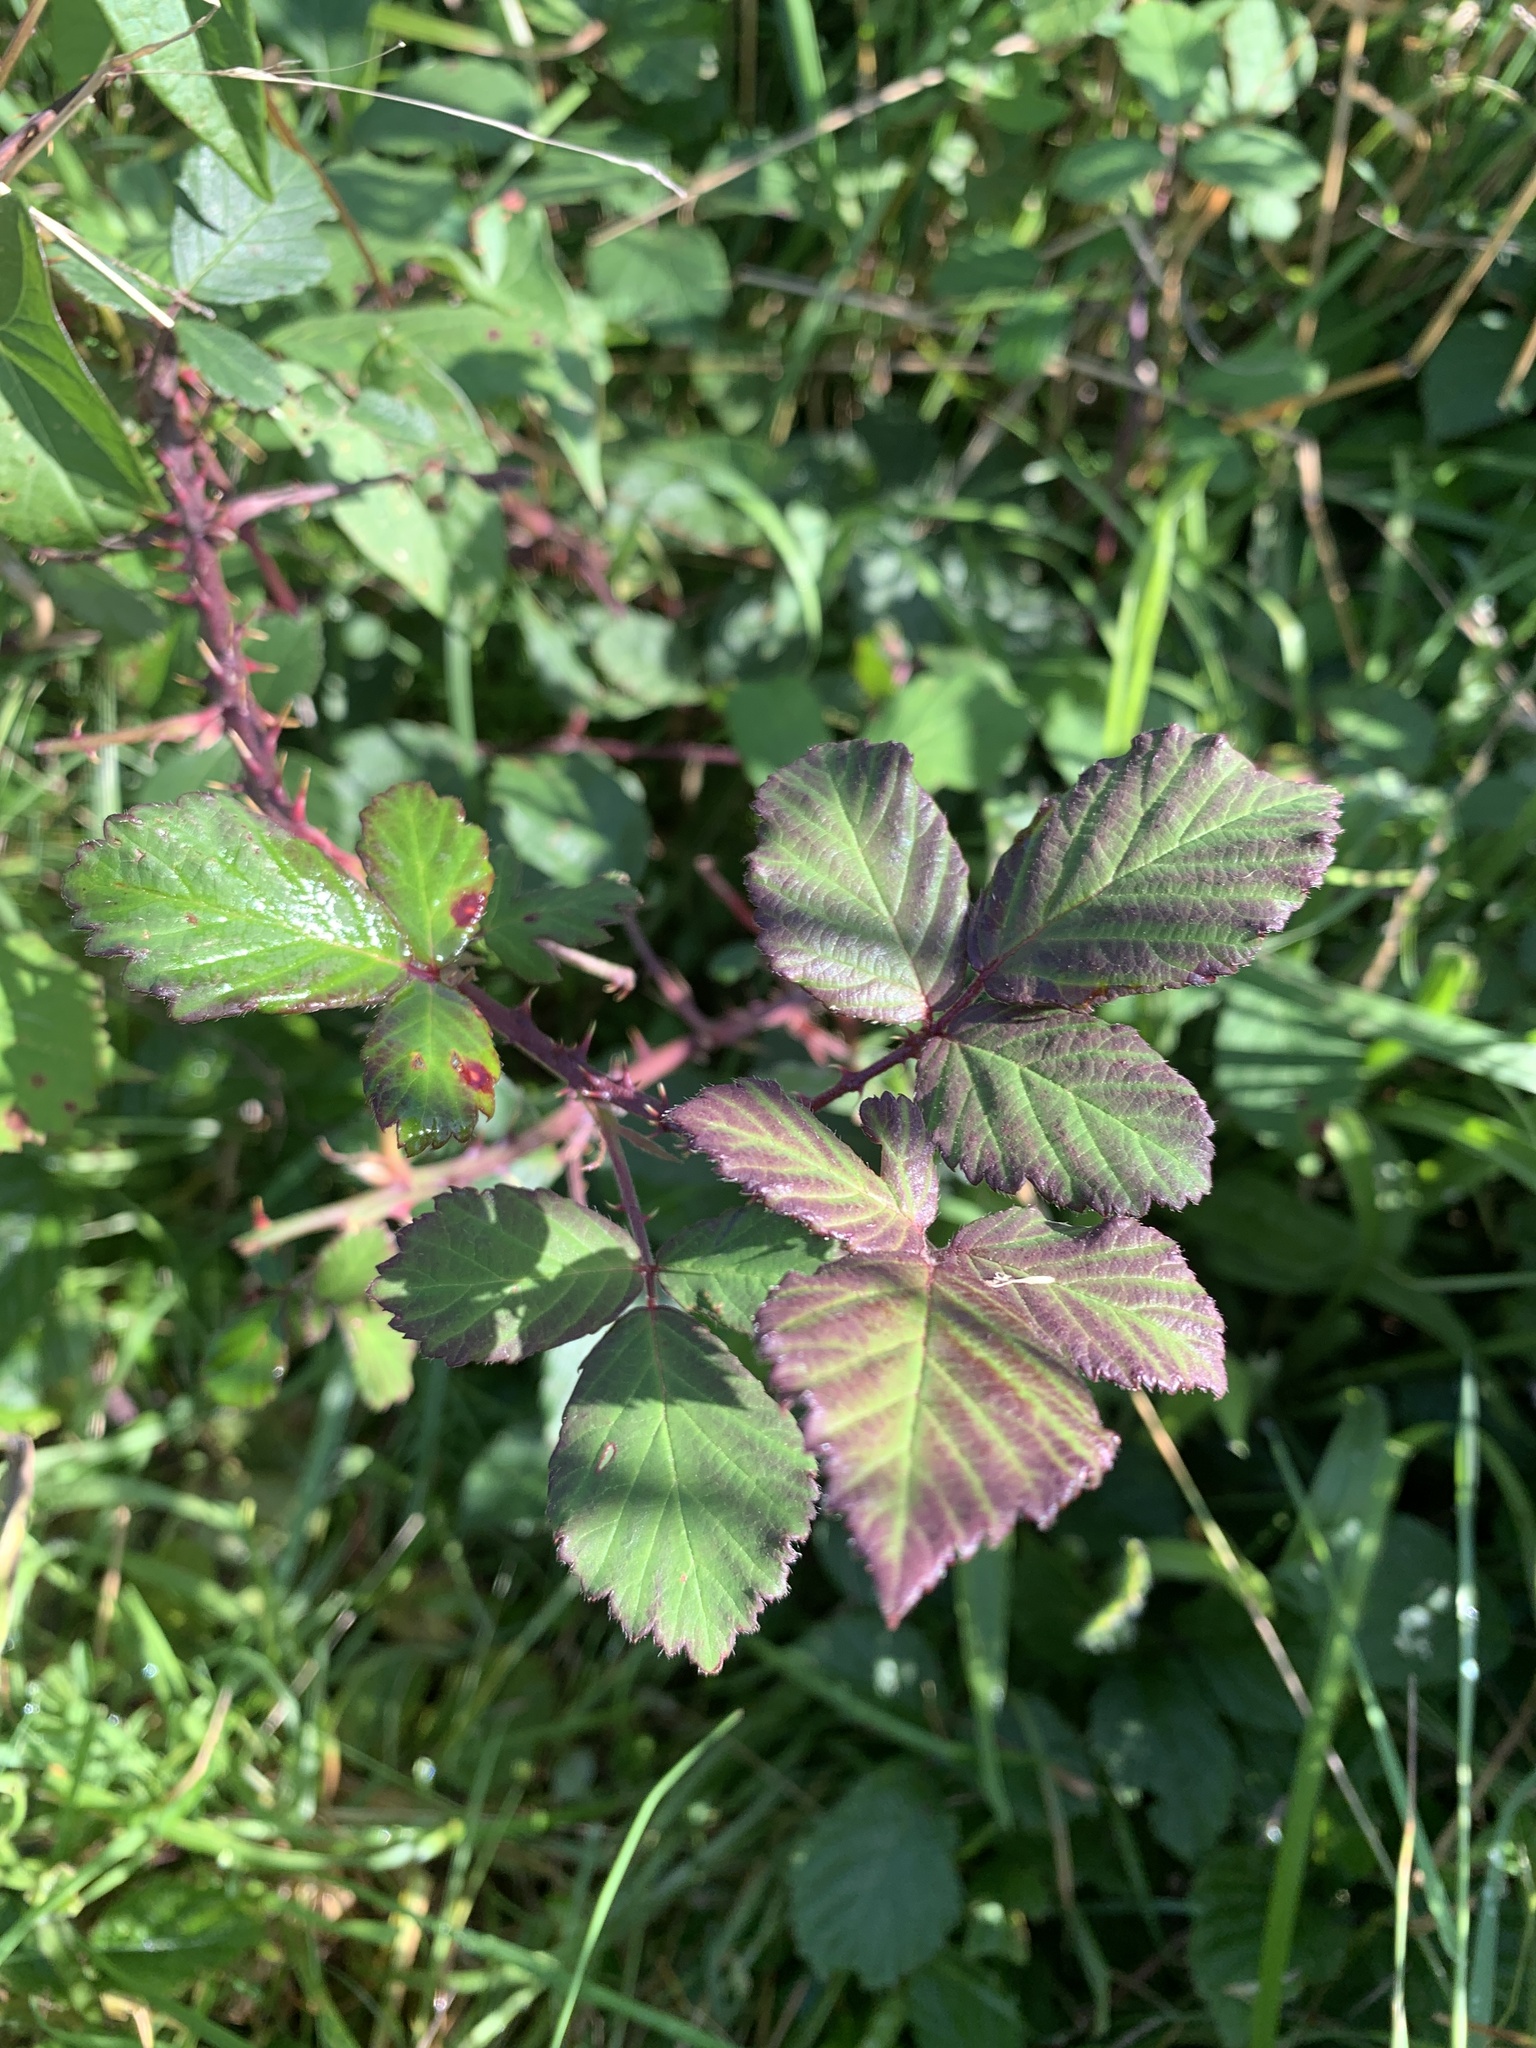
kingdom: Plantae
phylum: Tracheophyta
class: Magnoliopsida
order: Rosales
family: Rosaceae
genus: Rubus
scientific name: Rubus fruticosus
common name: Blackberry, bramble
